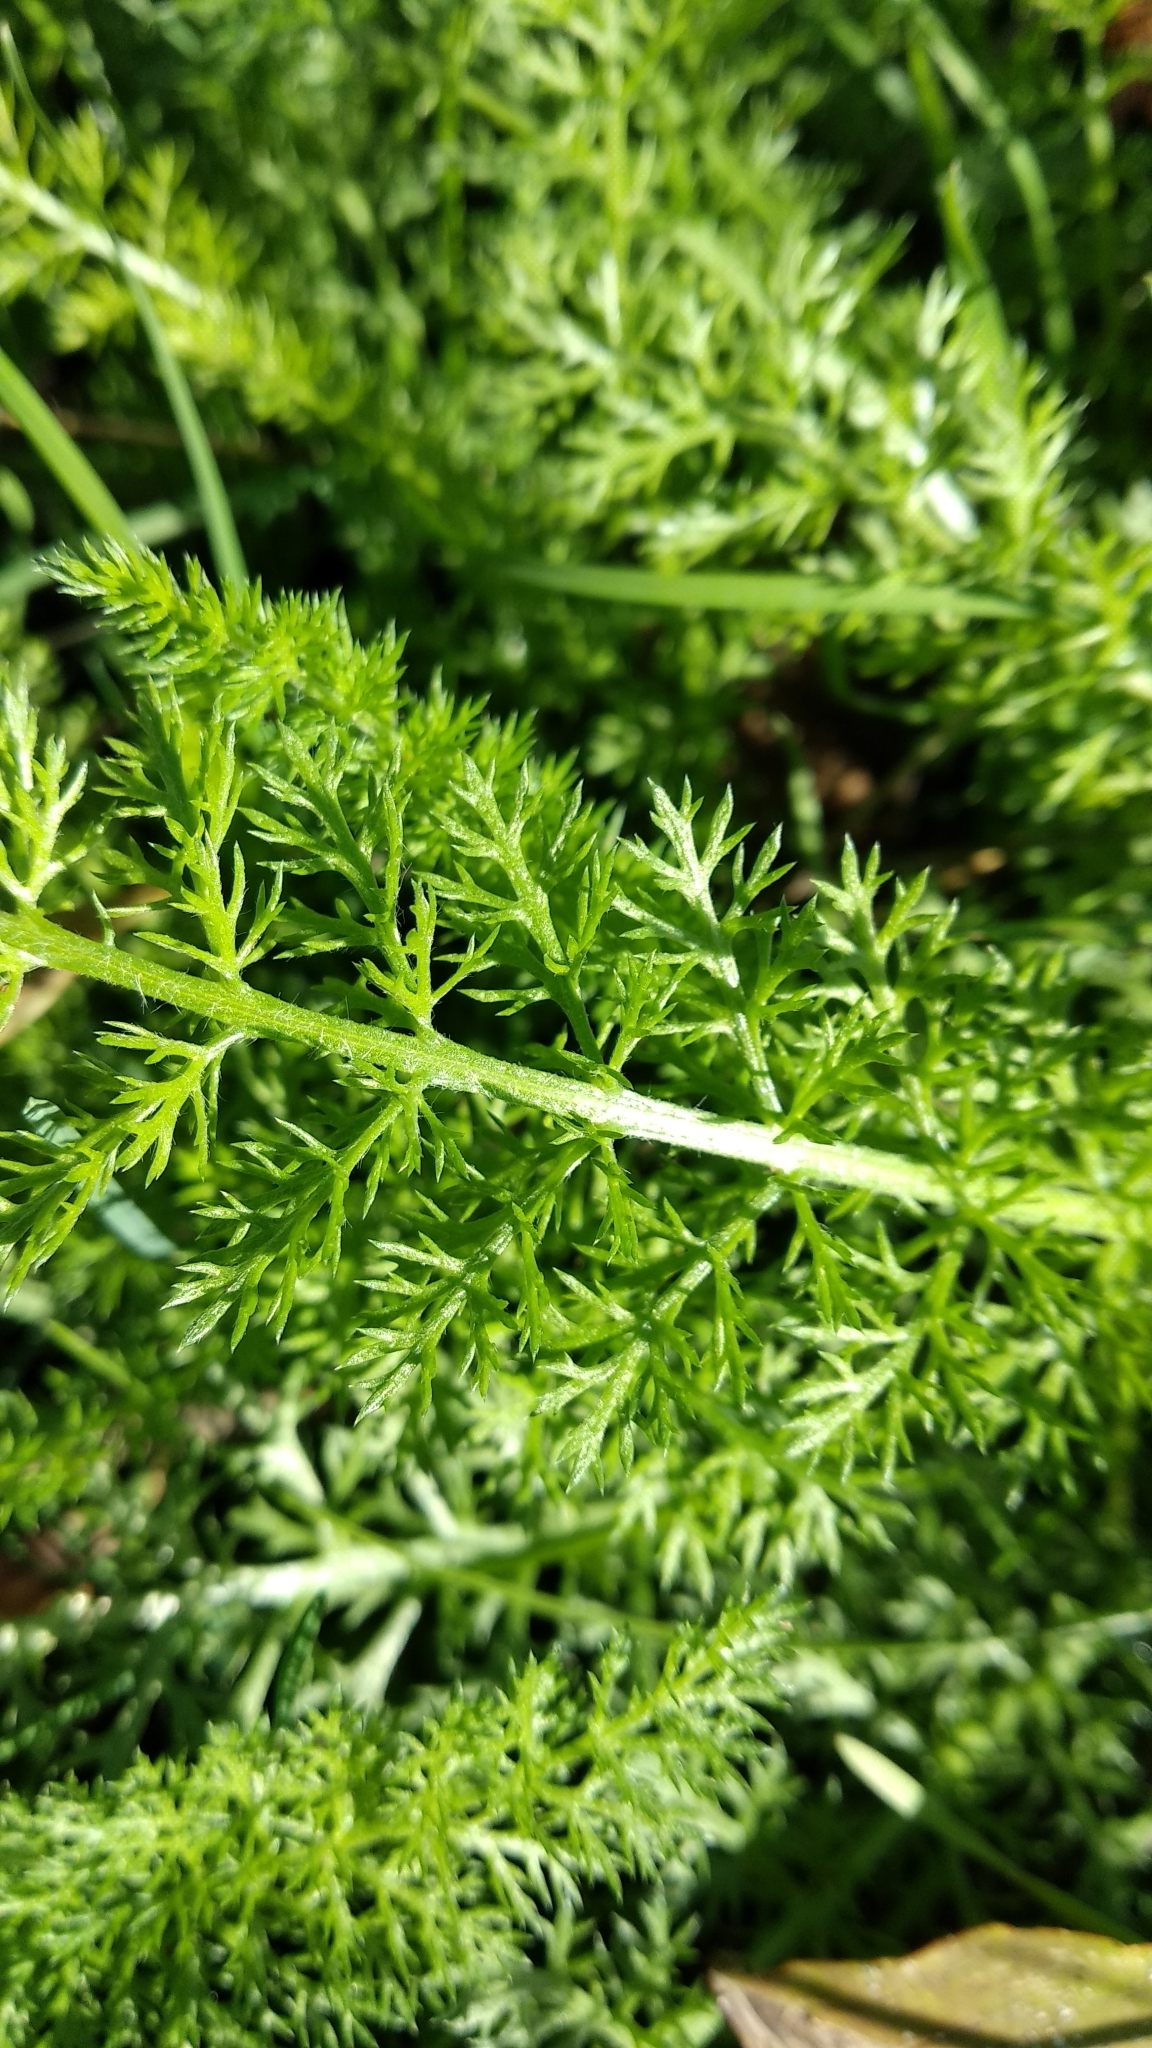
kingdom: Plantae
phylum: Tracheophyta
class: Magnoliopsida
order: Asterales
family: Asteraceae
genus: Achillea
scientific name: Achillea millefolium
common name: Yarrow
